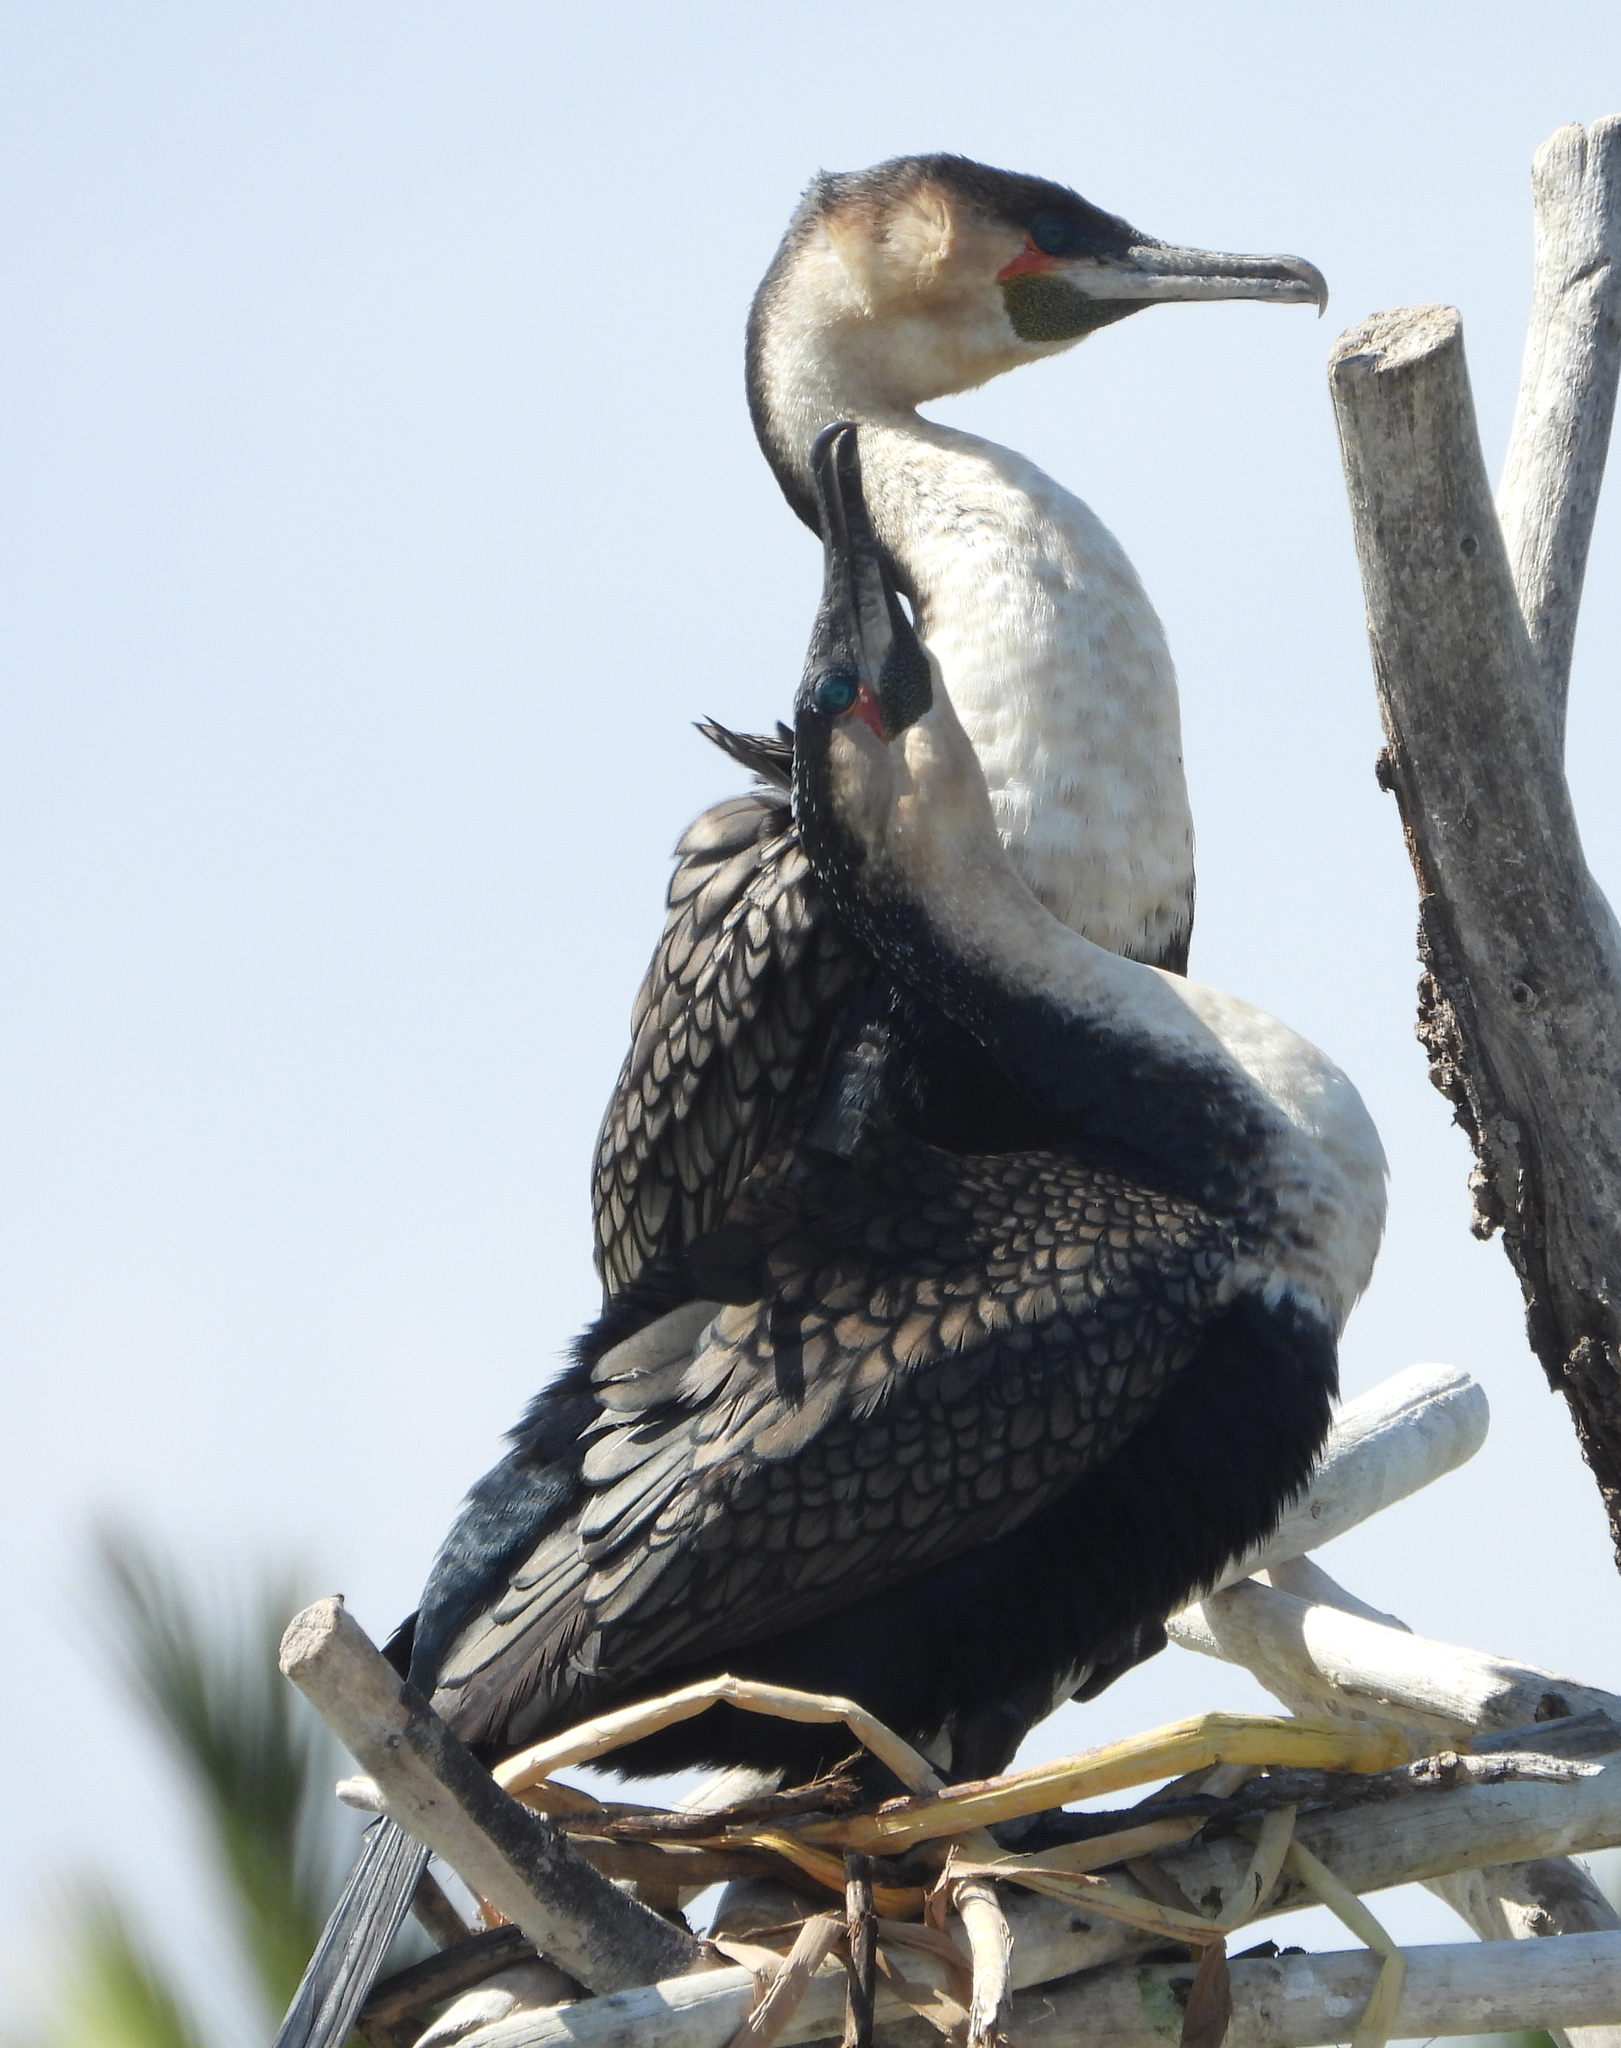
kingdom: Animalia
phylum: Chordata
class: Aves
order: Suliformes
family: Phalacrocoracidae
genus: Phalacrocorax
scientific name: Phalacrocorax carbo
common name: Great cormorant
